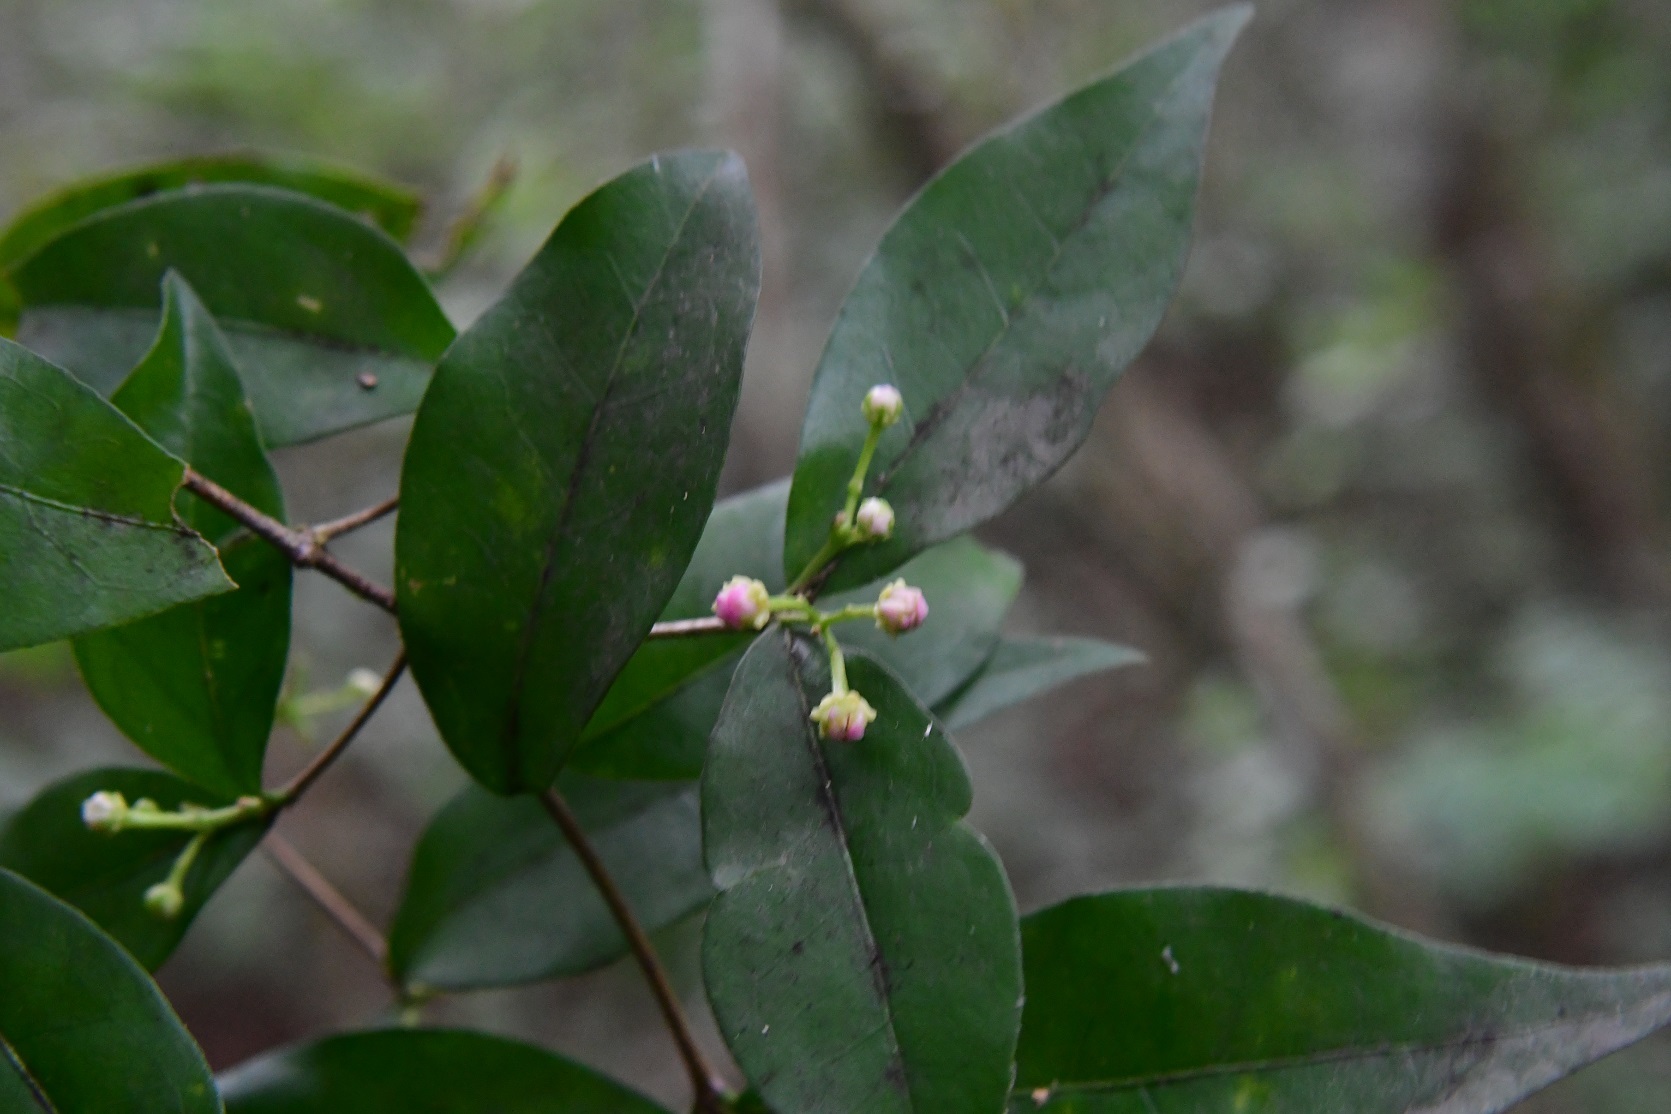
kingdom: Plantae
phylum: Tracheophyta
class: Magnoliopsida
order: Malpighiales
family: Malpighiaceae
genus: Malpighia
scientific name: Malpighia glabra
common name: Barbados cherry
